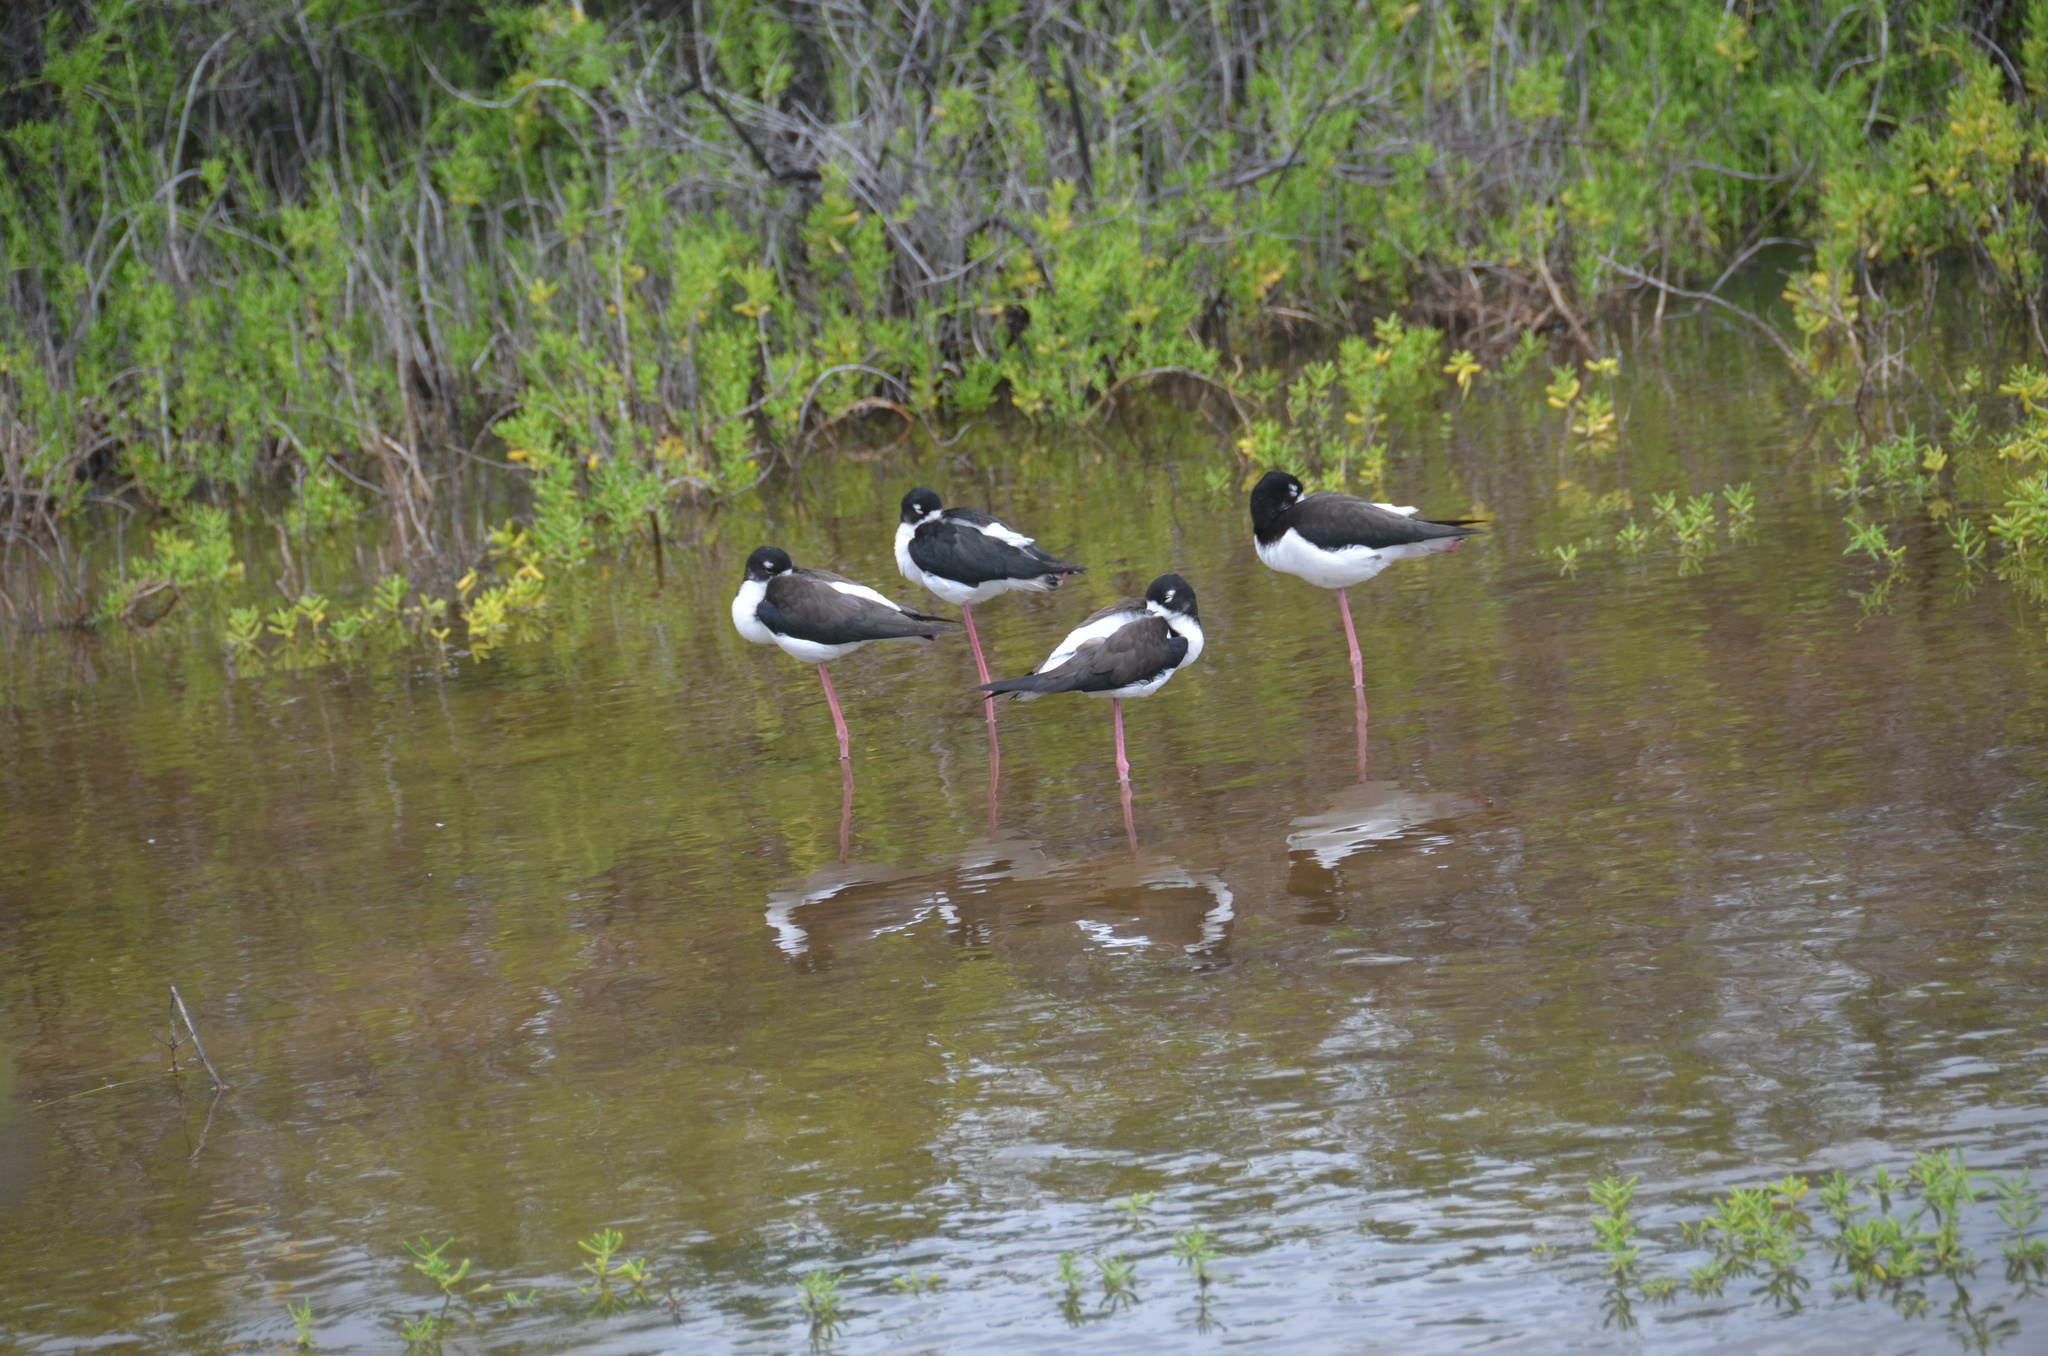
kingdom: Animalia
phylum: Chordata
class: Aves
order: Charadriiformes
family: Recurvirostridae
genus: Himantopus
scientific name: Himantopus mexicanus
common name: Black-necked stilt
